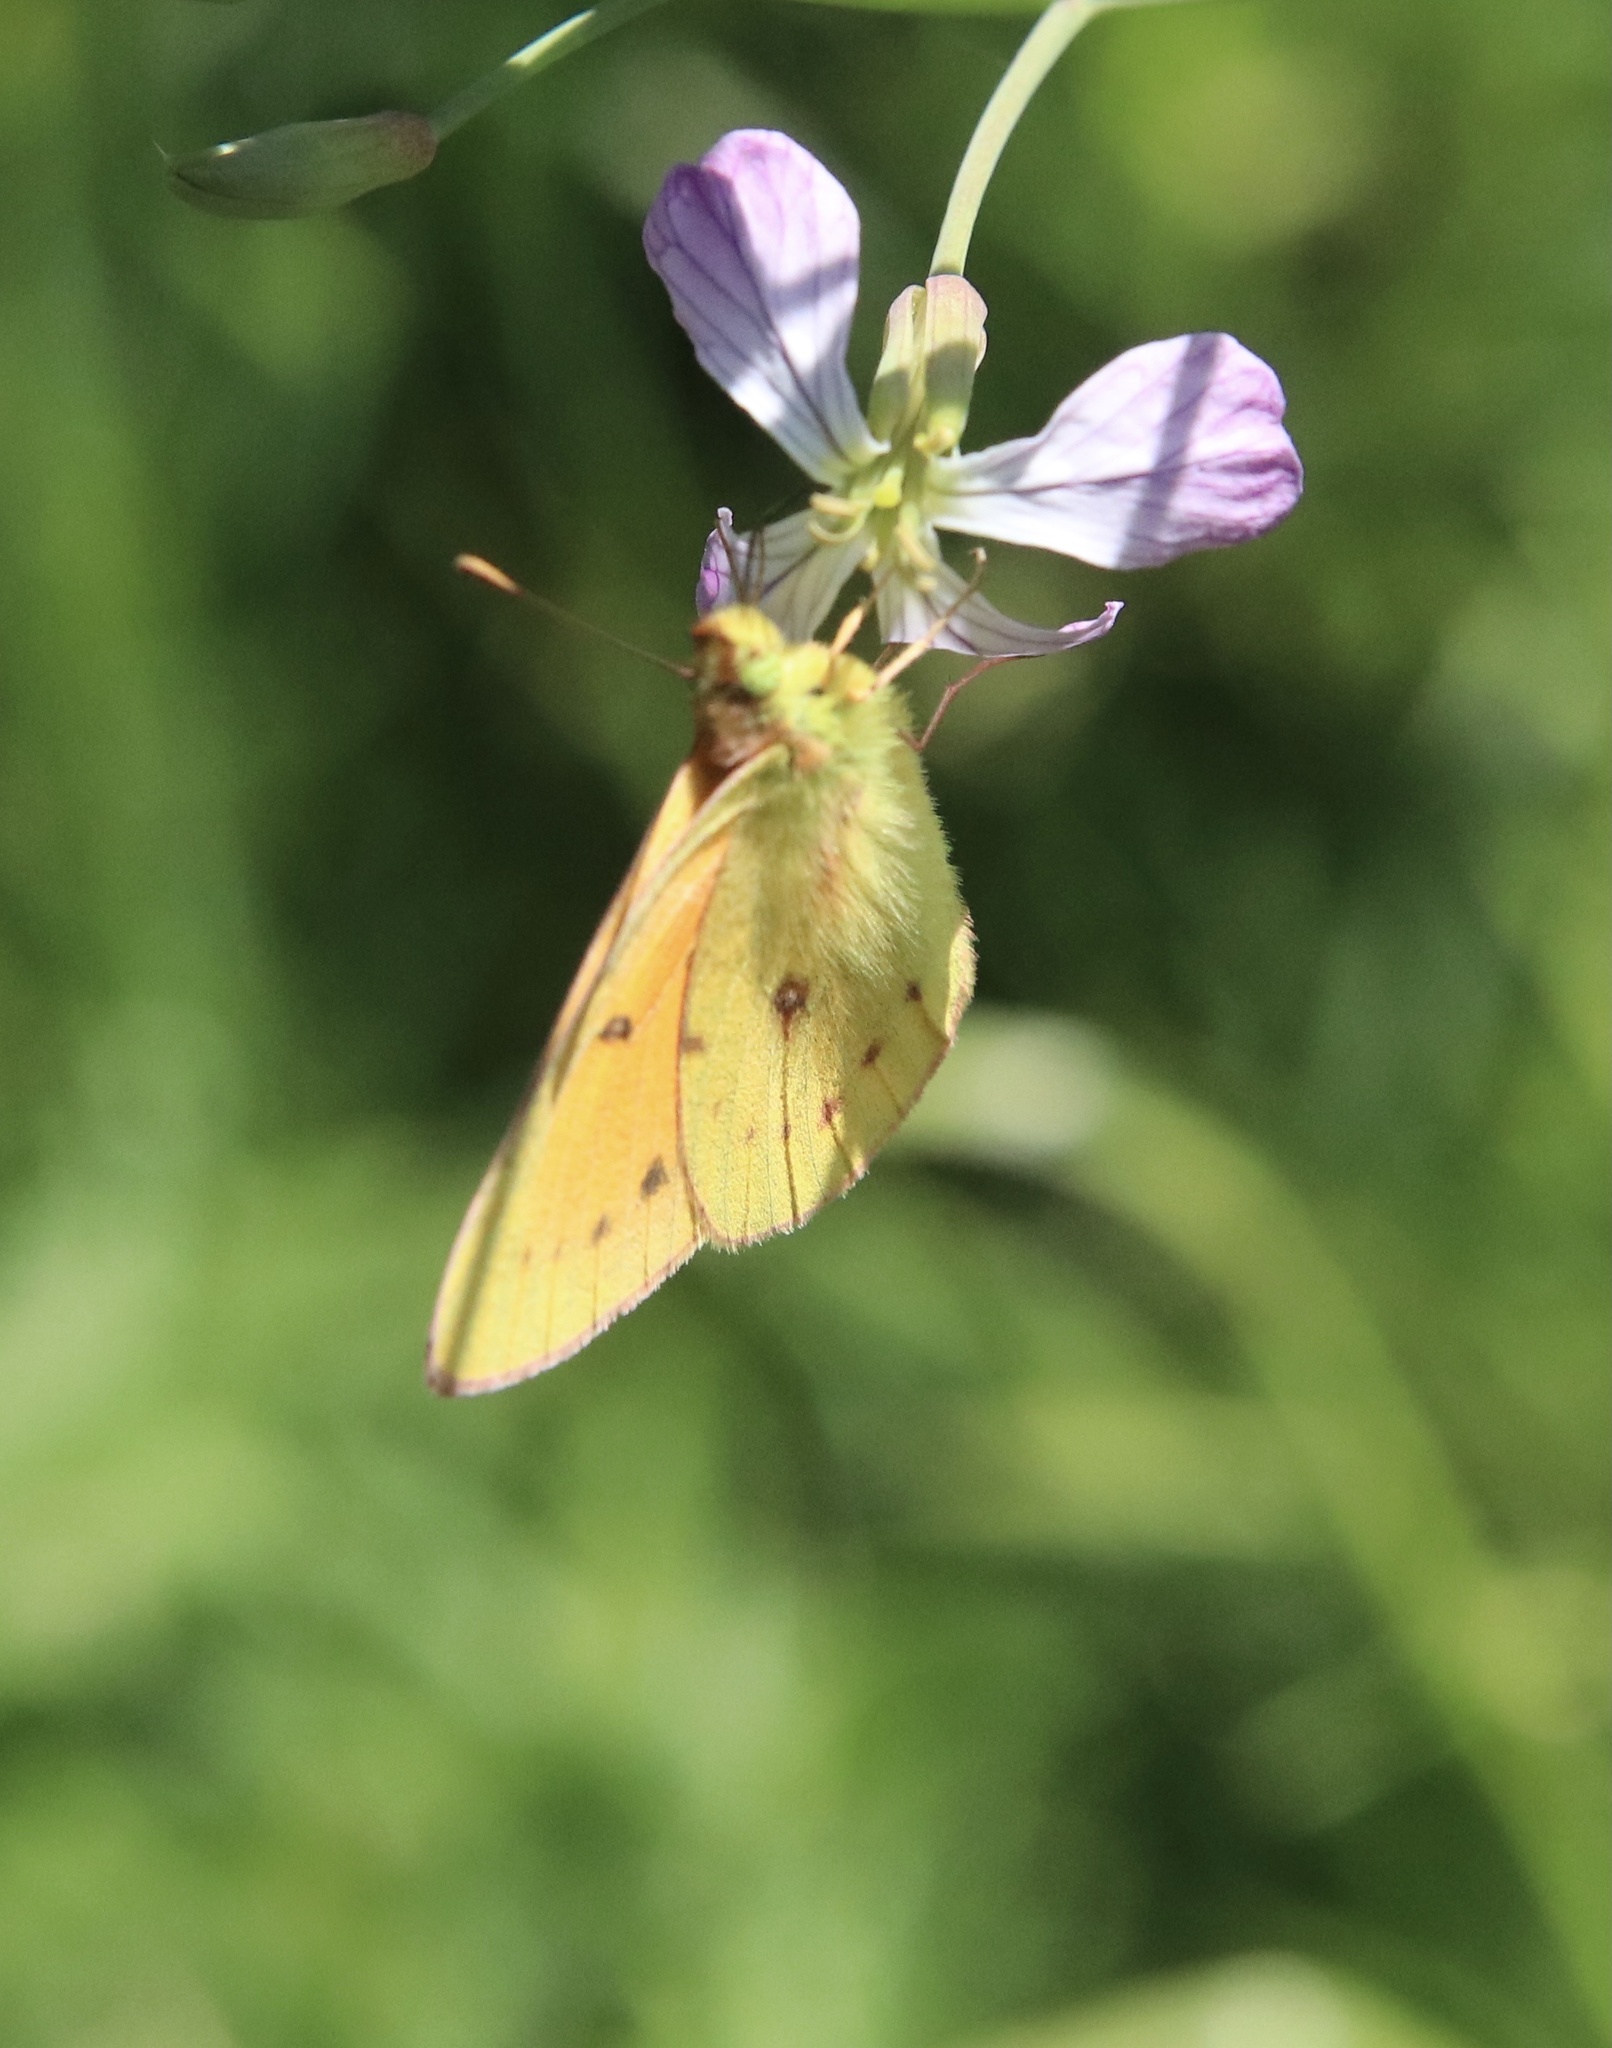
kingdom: Animalia
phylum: Arthropoda
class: Insecta
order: Lepidoptera
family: Pieridae
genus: Colias
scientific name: Colias vauthierii
